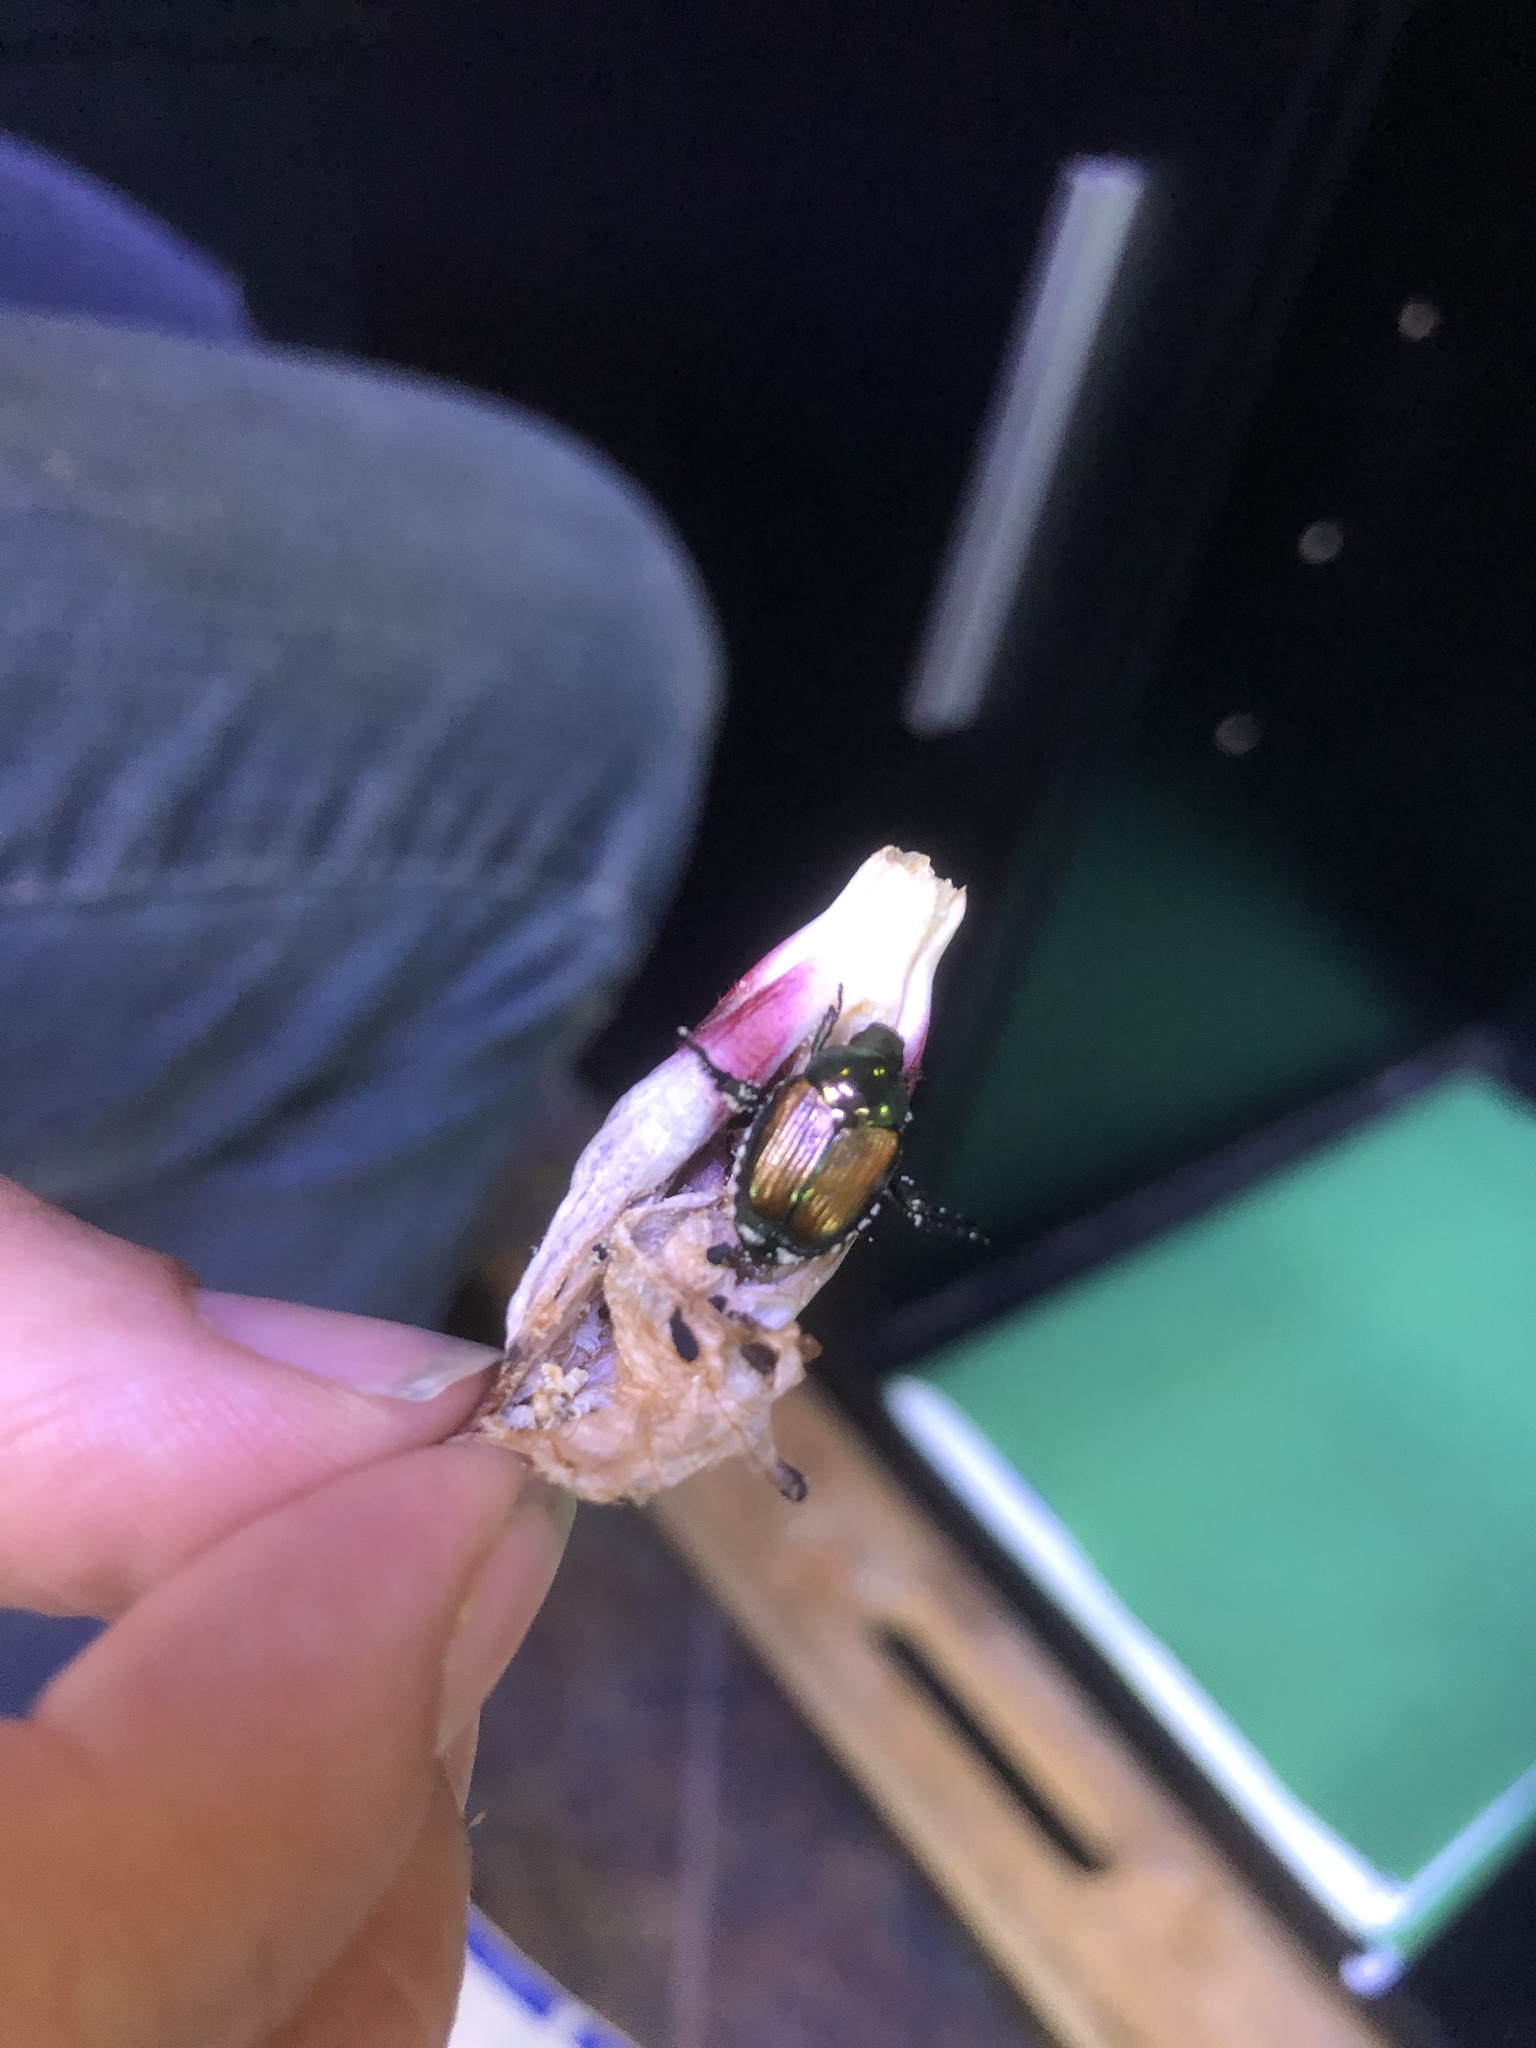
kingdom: Animalia
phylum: Arthropoda
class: Insecta
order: Coleoptera
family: Scarabaeidae
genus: Popillia
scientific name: Popillia japonica
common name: Japanese beetle
